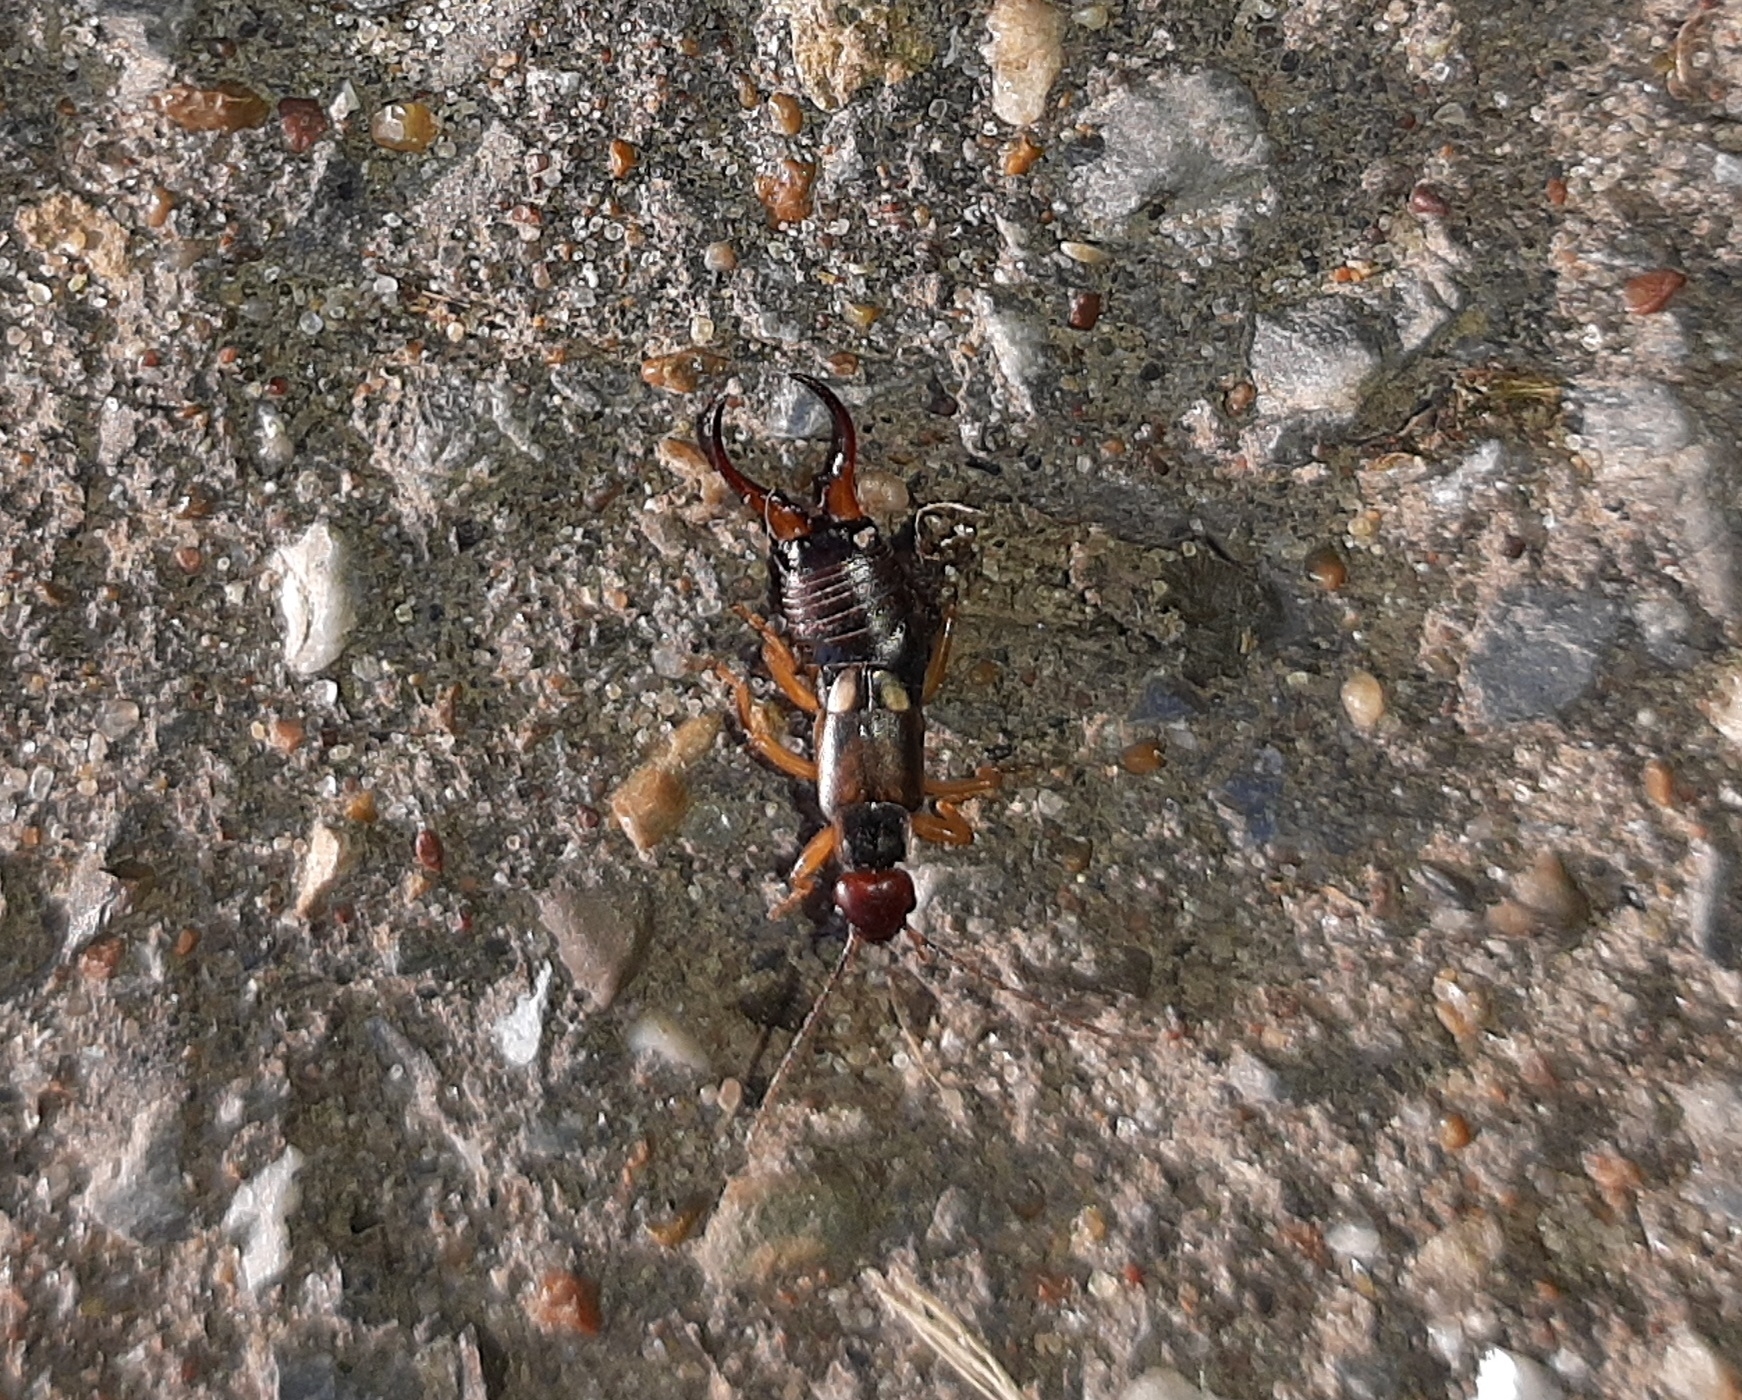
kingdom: Animalia
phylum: Arthropoda
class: Insecta
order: Dermaptera
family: Forficulidae
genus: Forficula
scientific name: Forficula
